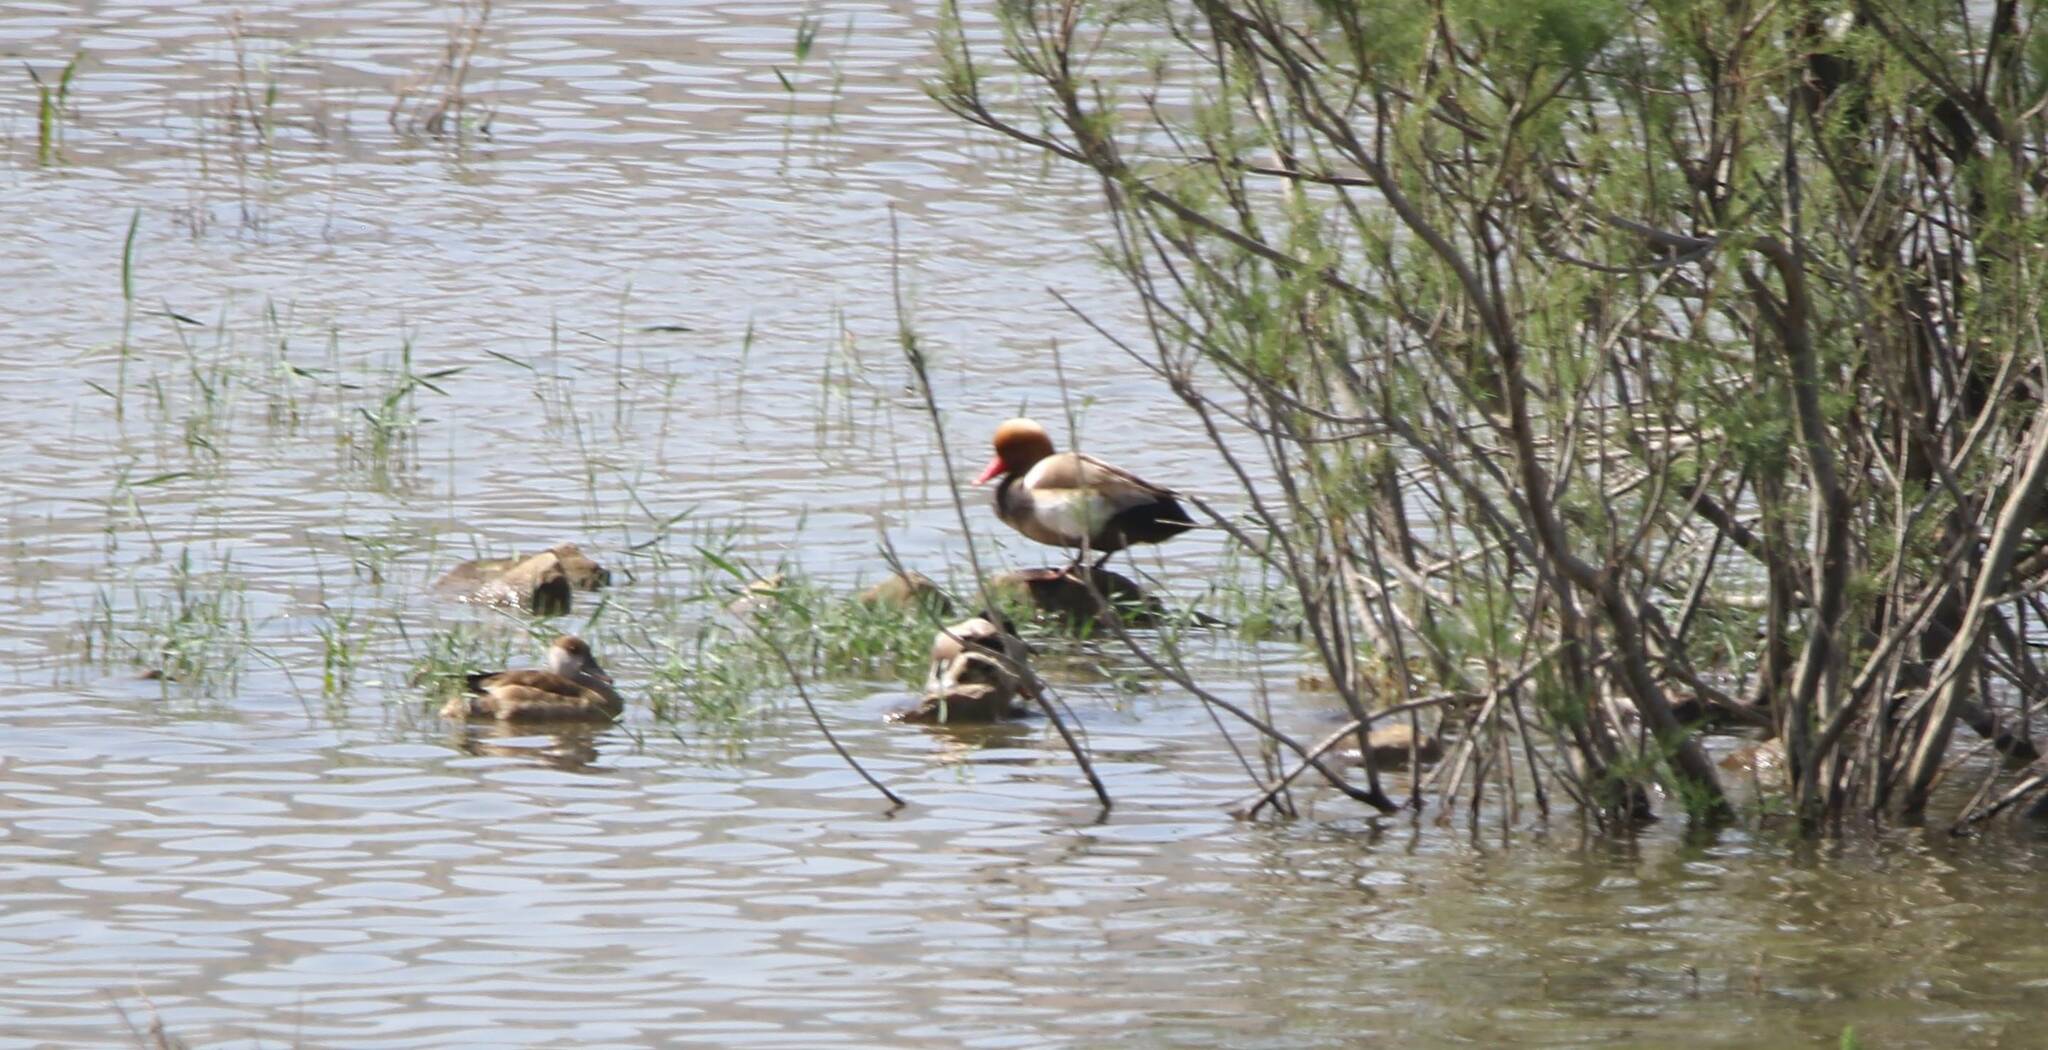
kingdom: Animalia
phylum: Chordata
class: Aves
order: Anseriformes
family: Anatidae
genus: Netta
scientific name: Netta rufina
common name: Red-crested pochard
